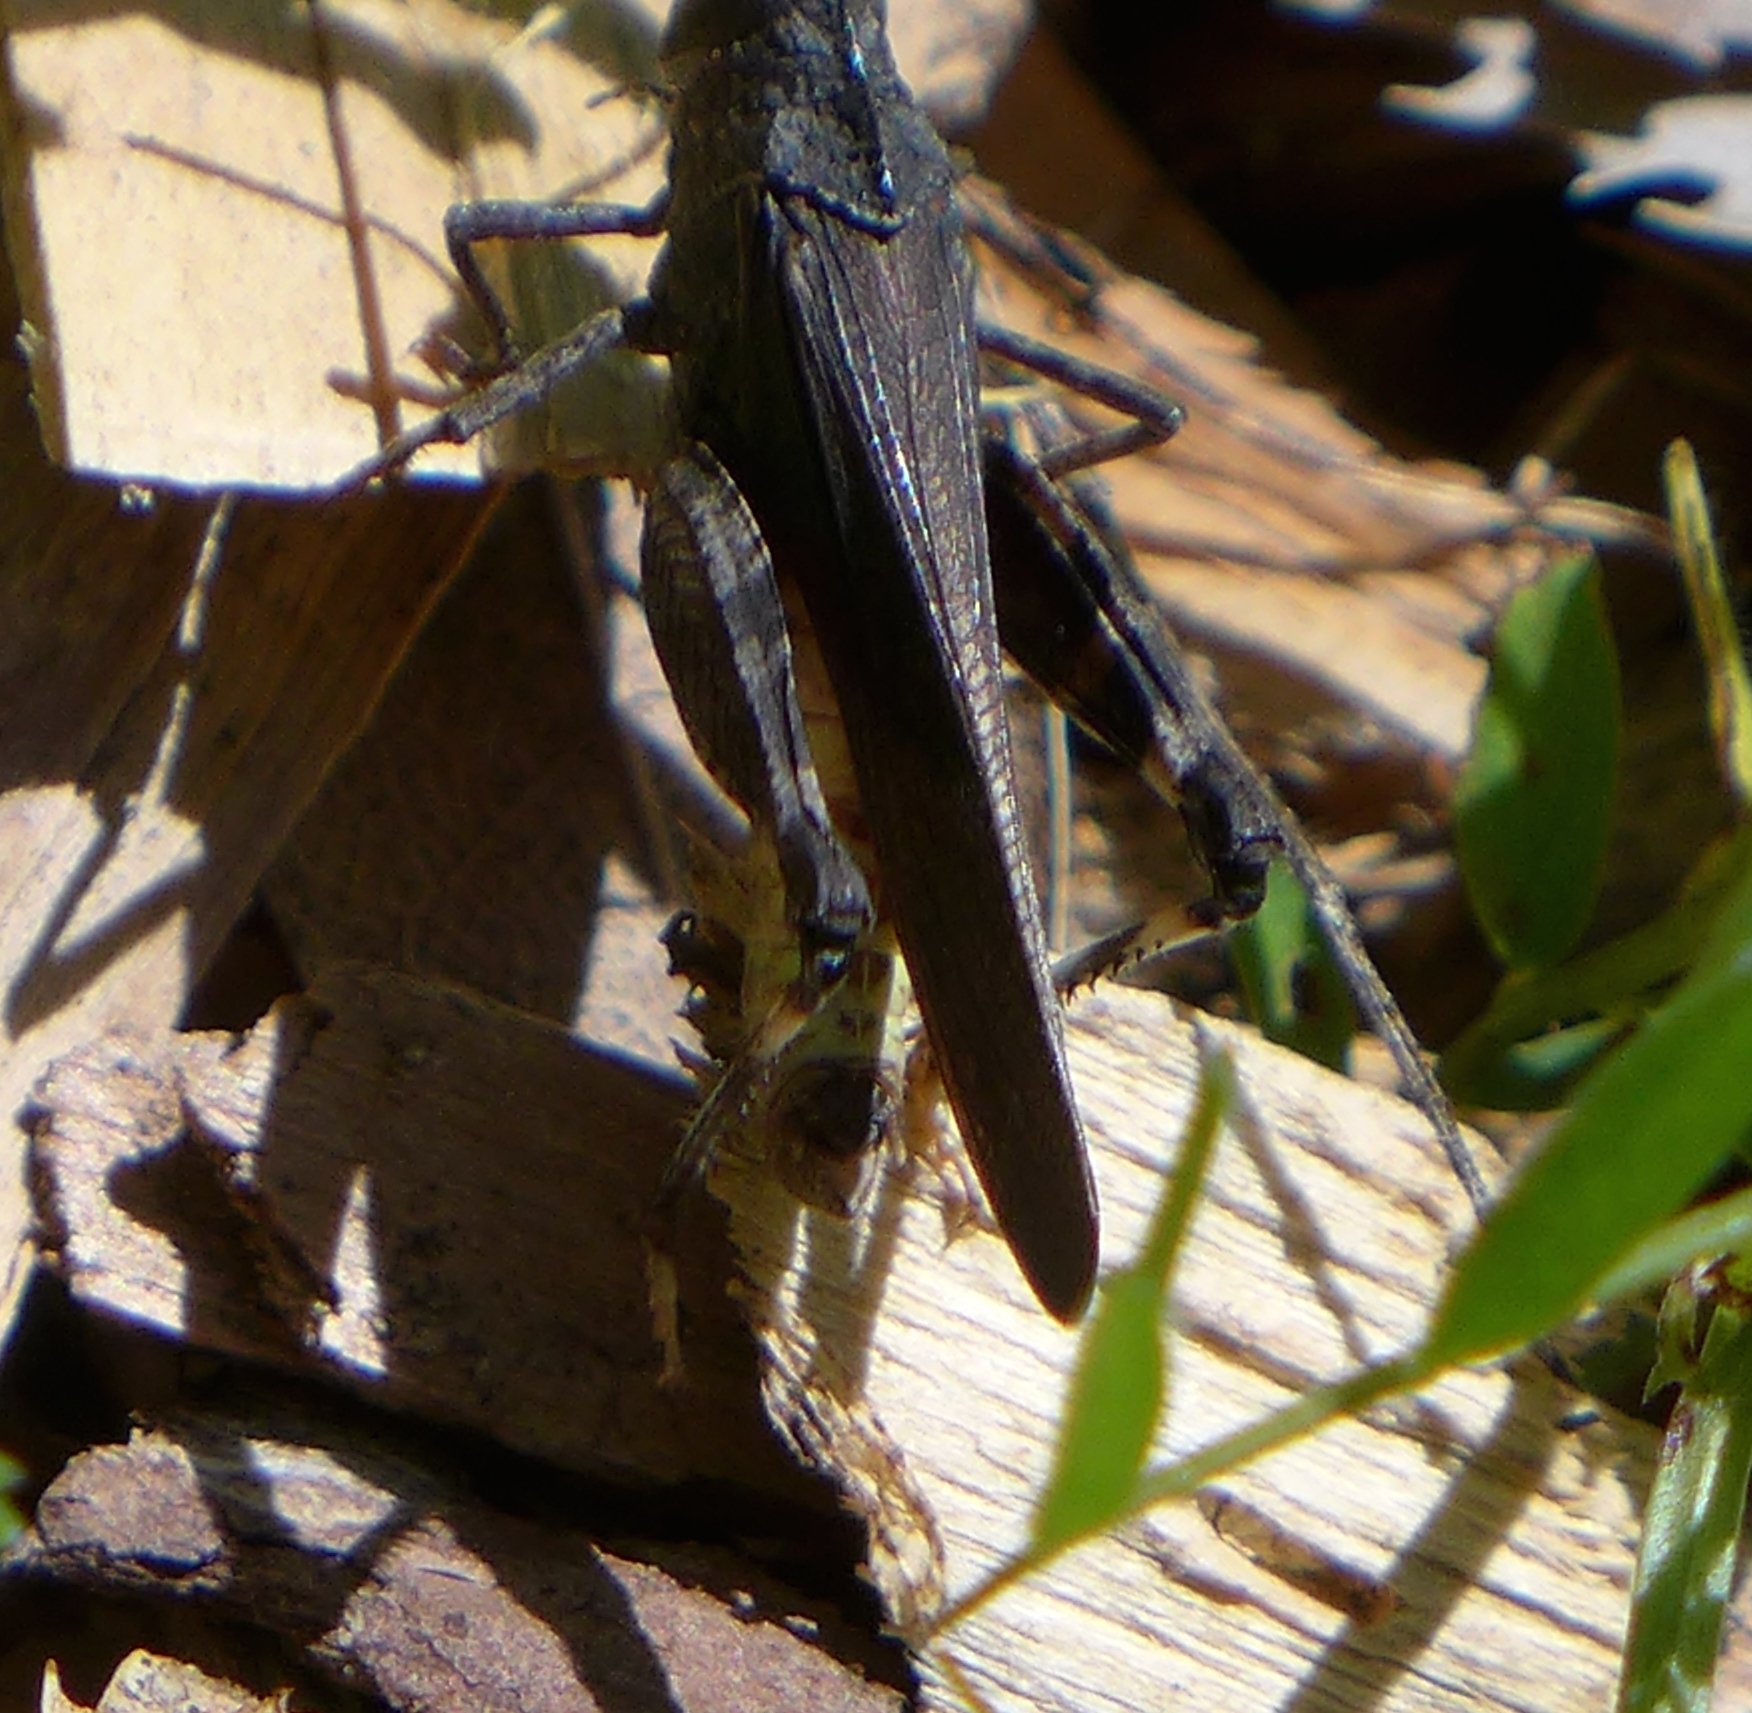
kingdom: Animalia
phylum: Arthropoda
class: Insecta
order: Orthoptera
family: Acrididae
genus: Arphia
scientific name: Arphia behrensi
